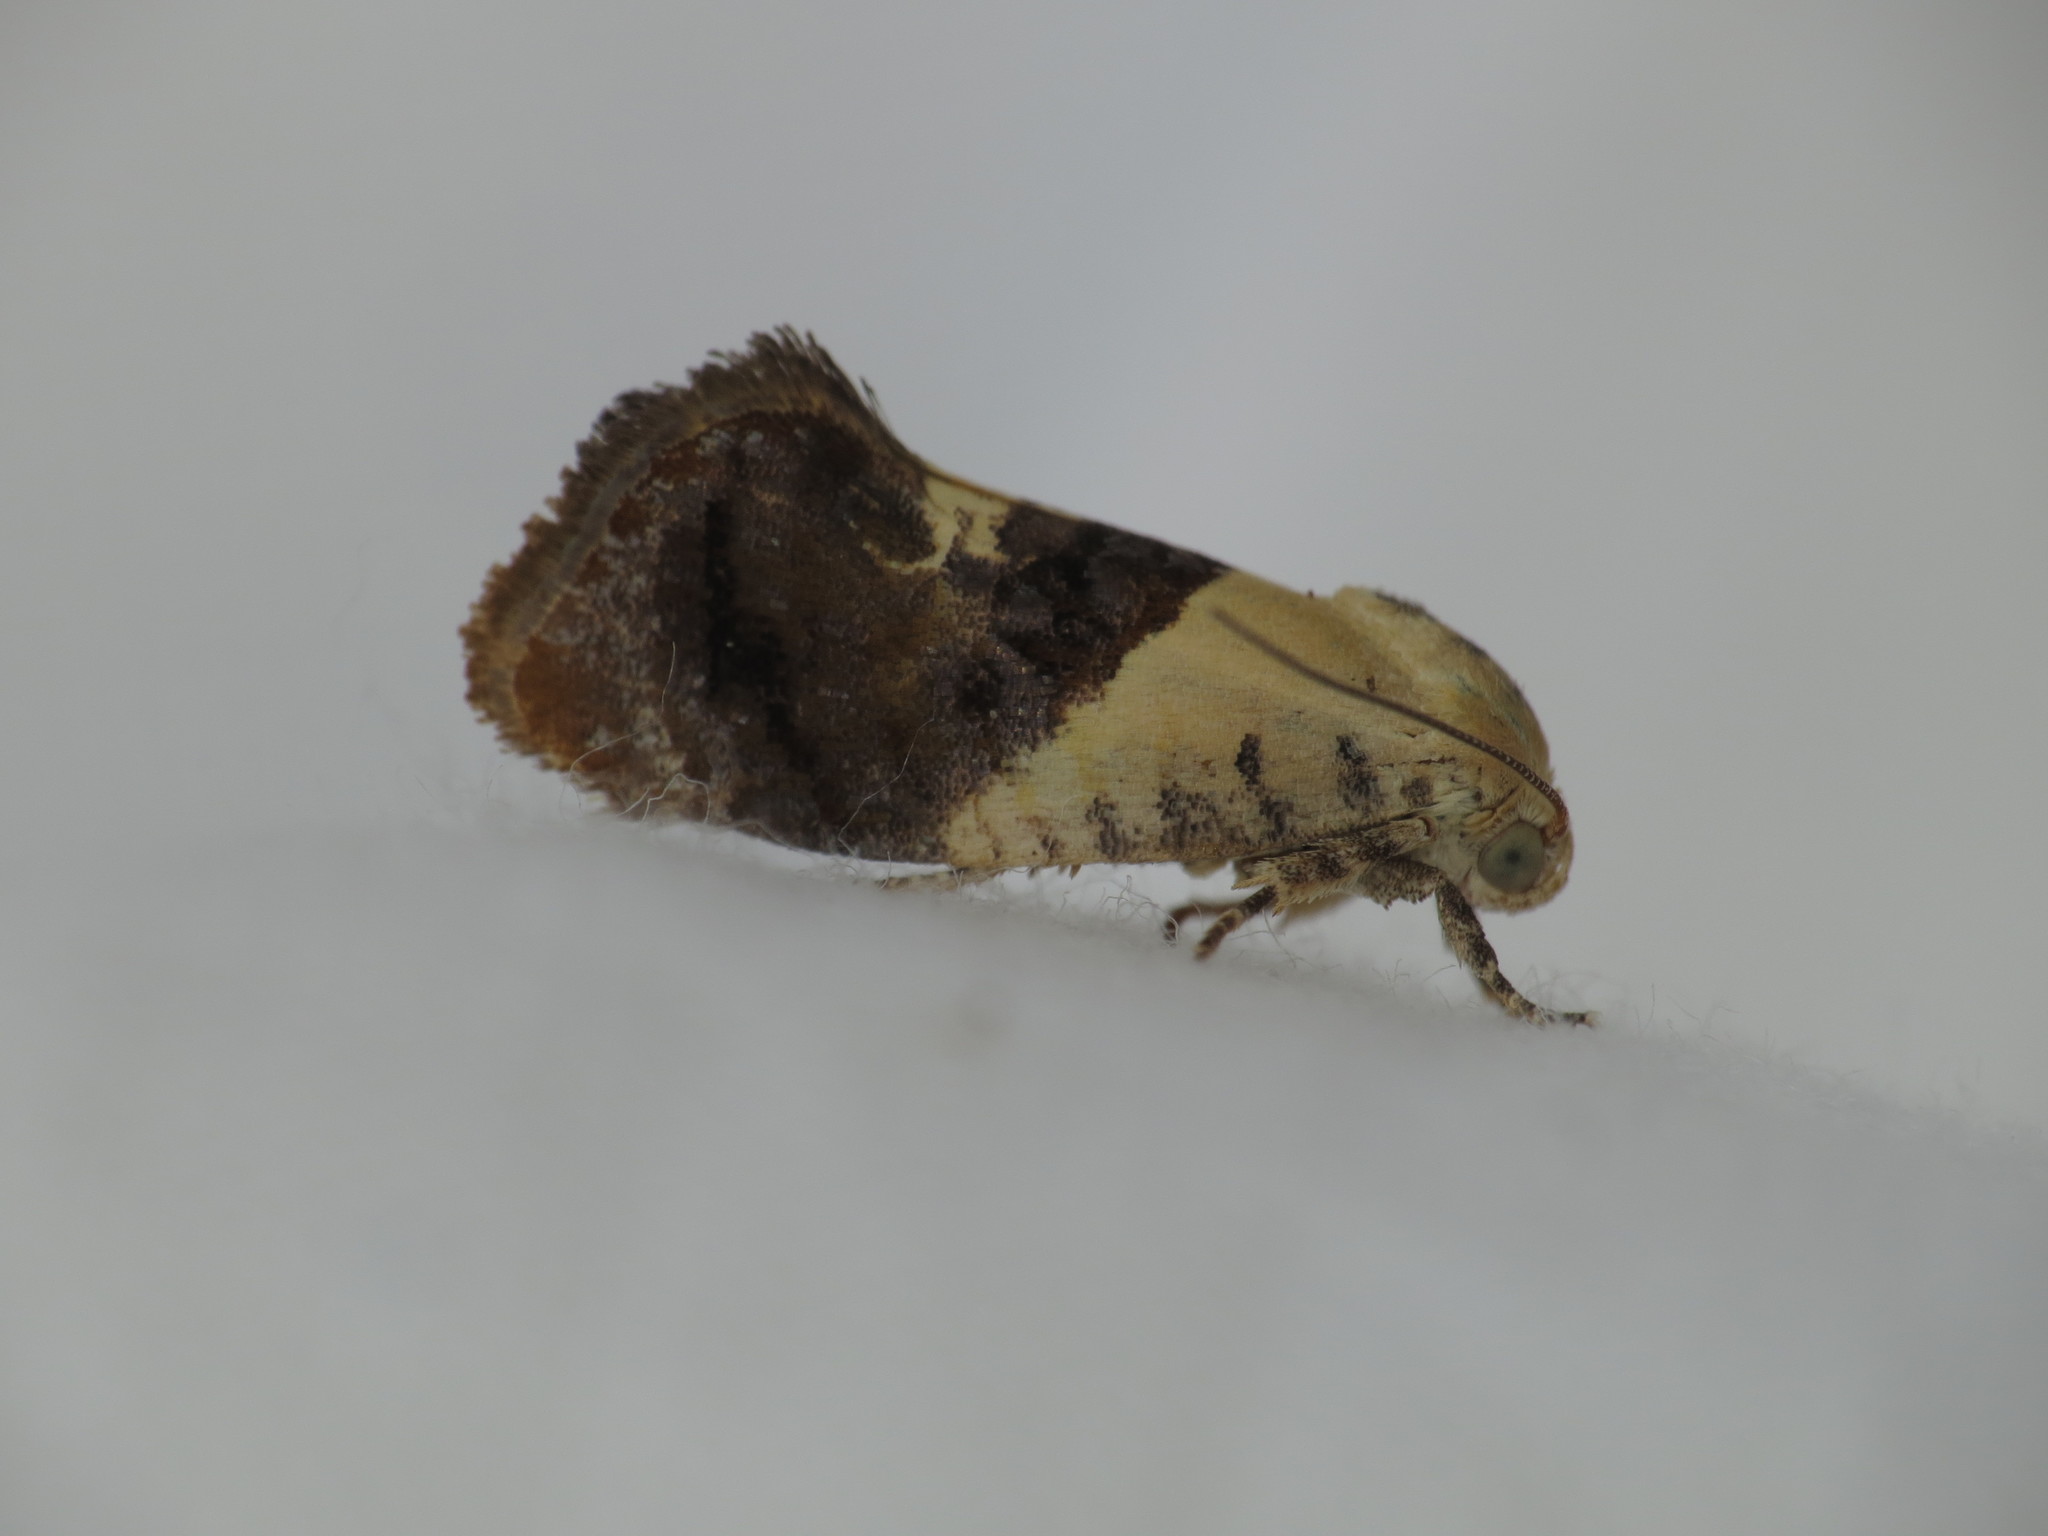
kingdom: Animalia
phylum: Arthropoda
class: Insecta
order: Lepidoptera
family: Depressariidae
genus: Hypertropha
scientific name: Hypertropha chlaenota
